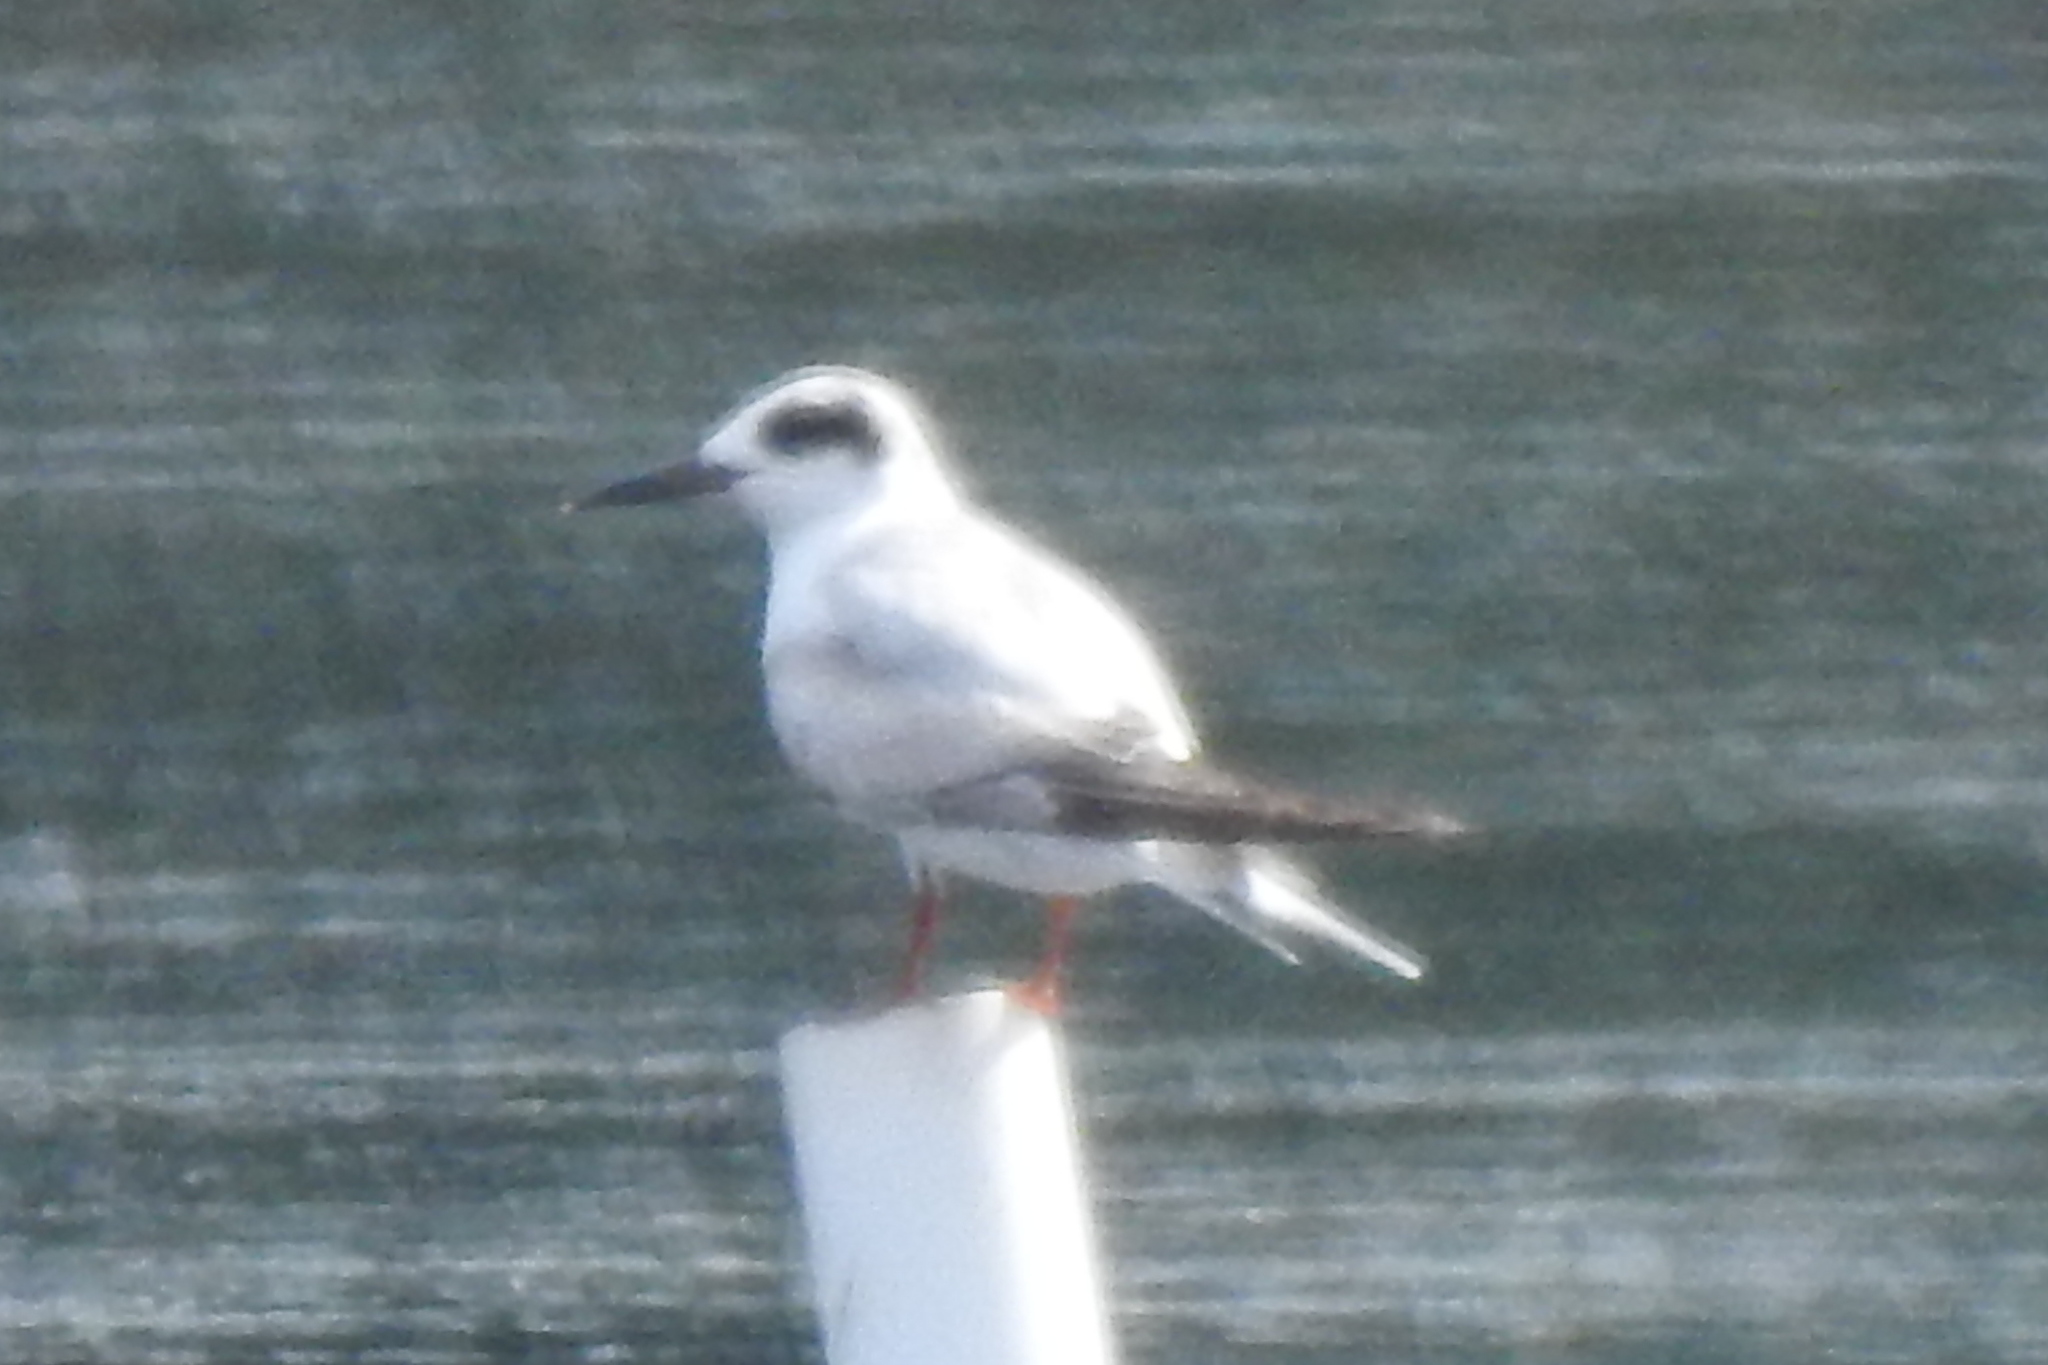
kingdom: Animalia
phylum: Chordata
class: Aves
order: Charadriiformes
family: Laridae
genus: Sterna
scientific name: Sterna forsteri
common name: Forster's tern
